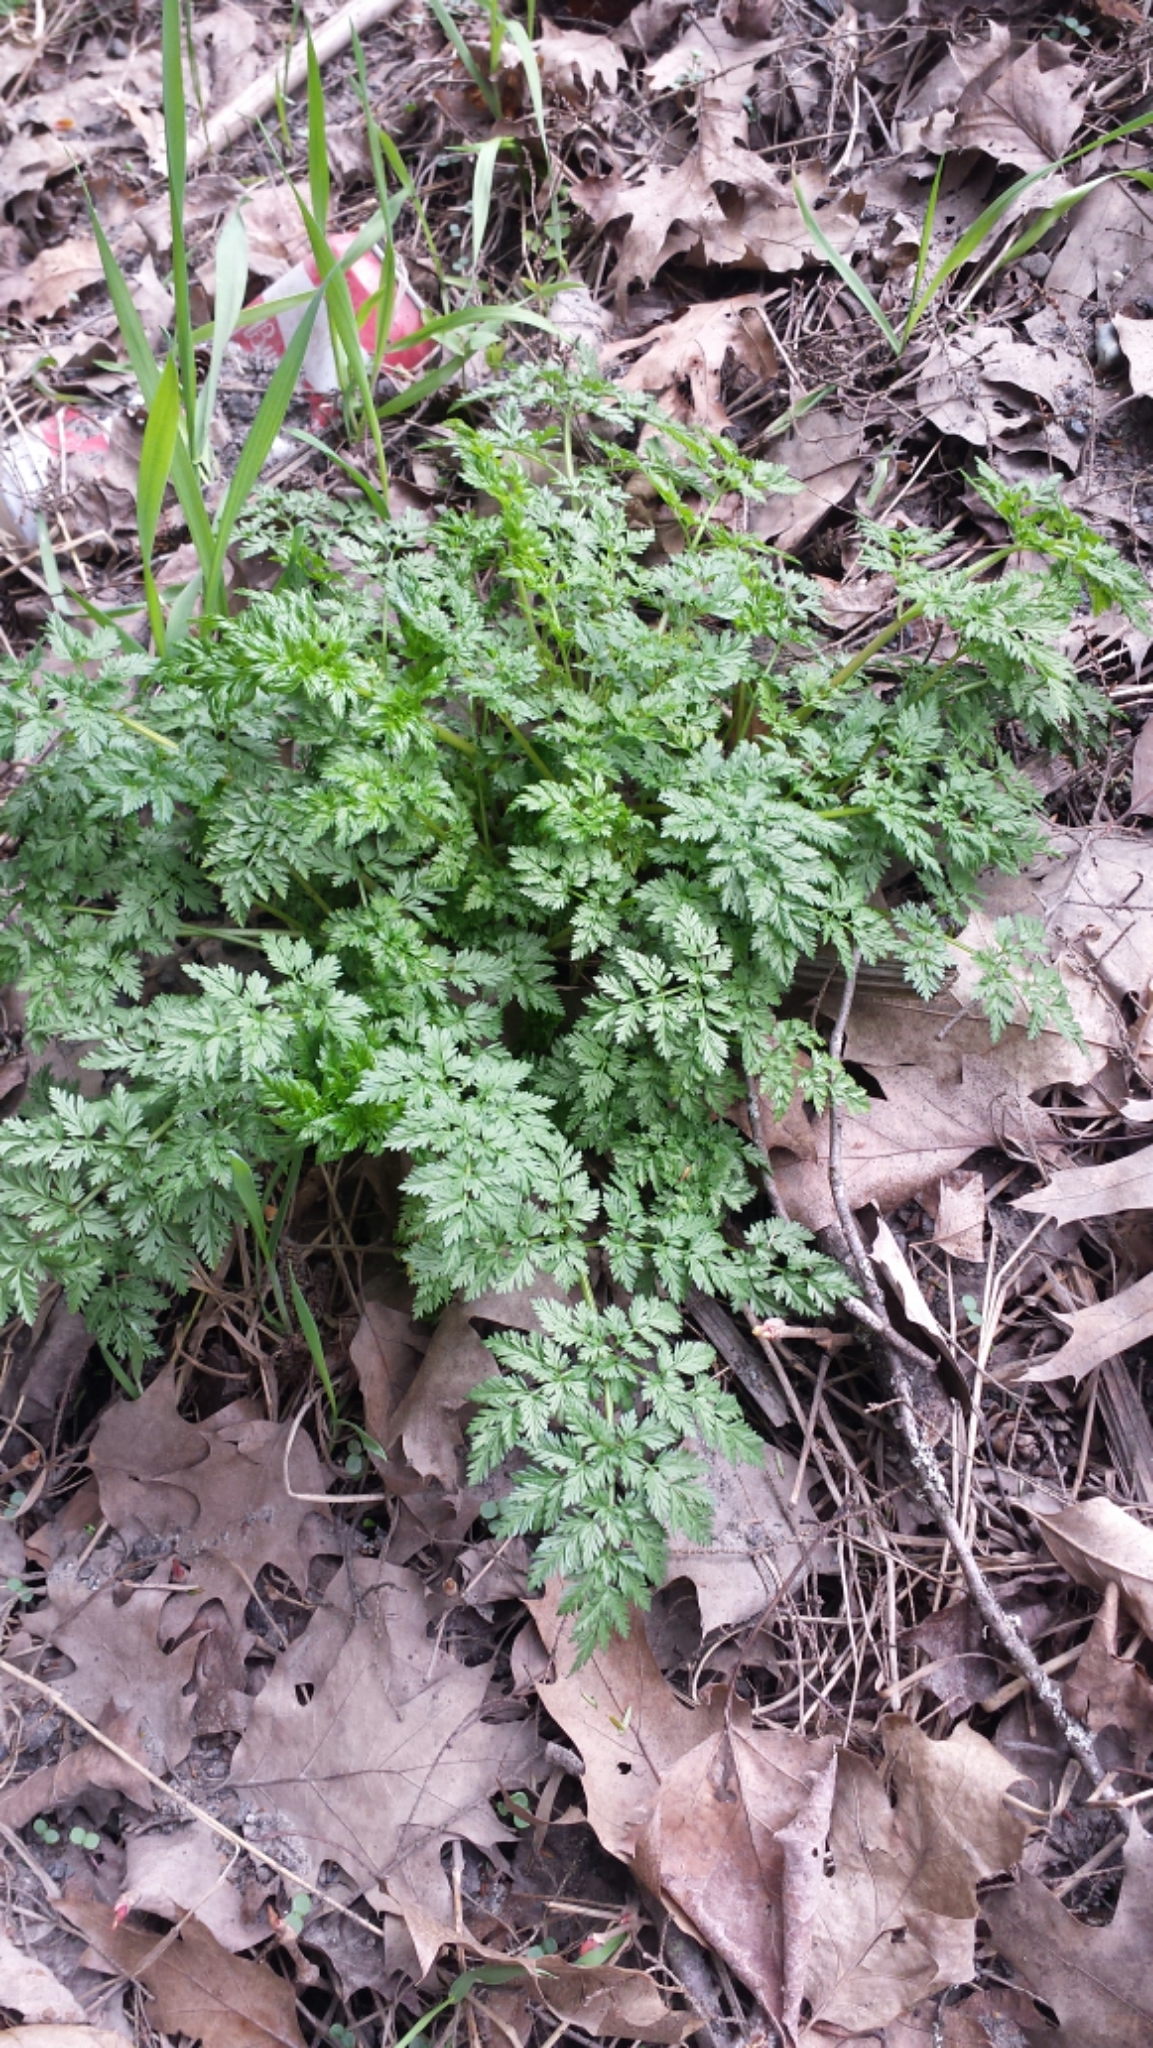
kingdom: Plantae
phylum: Tracheophyta
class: Magnoliopsida
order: Apiales
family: Apiaceae
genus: Anthriscus
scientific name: Anthriscus sylvestris
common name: Cow parsley
